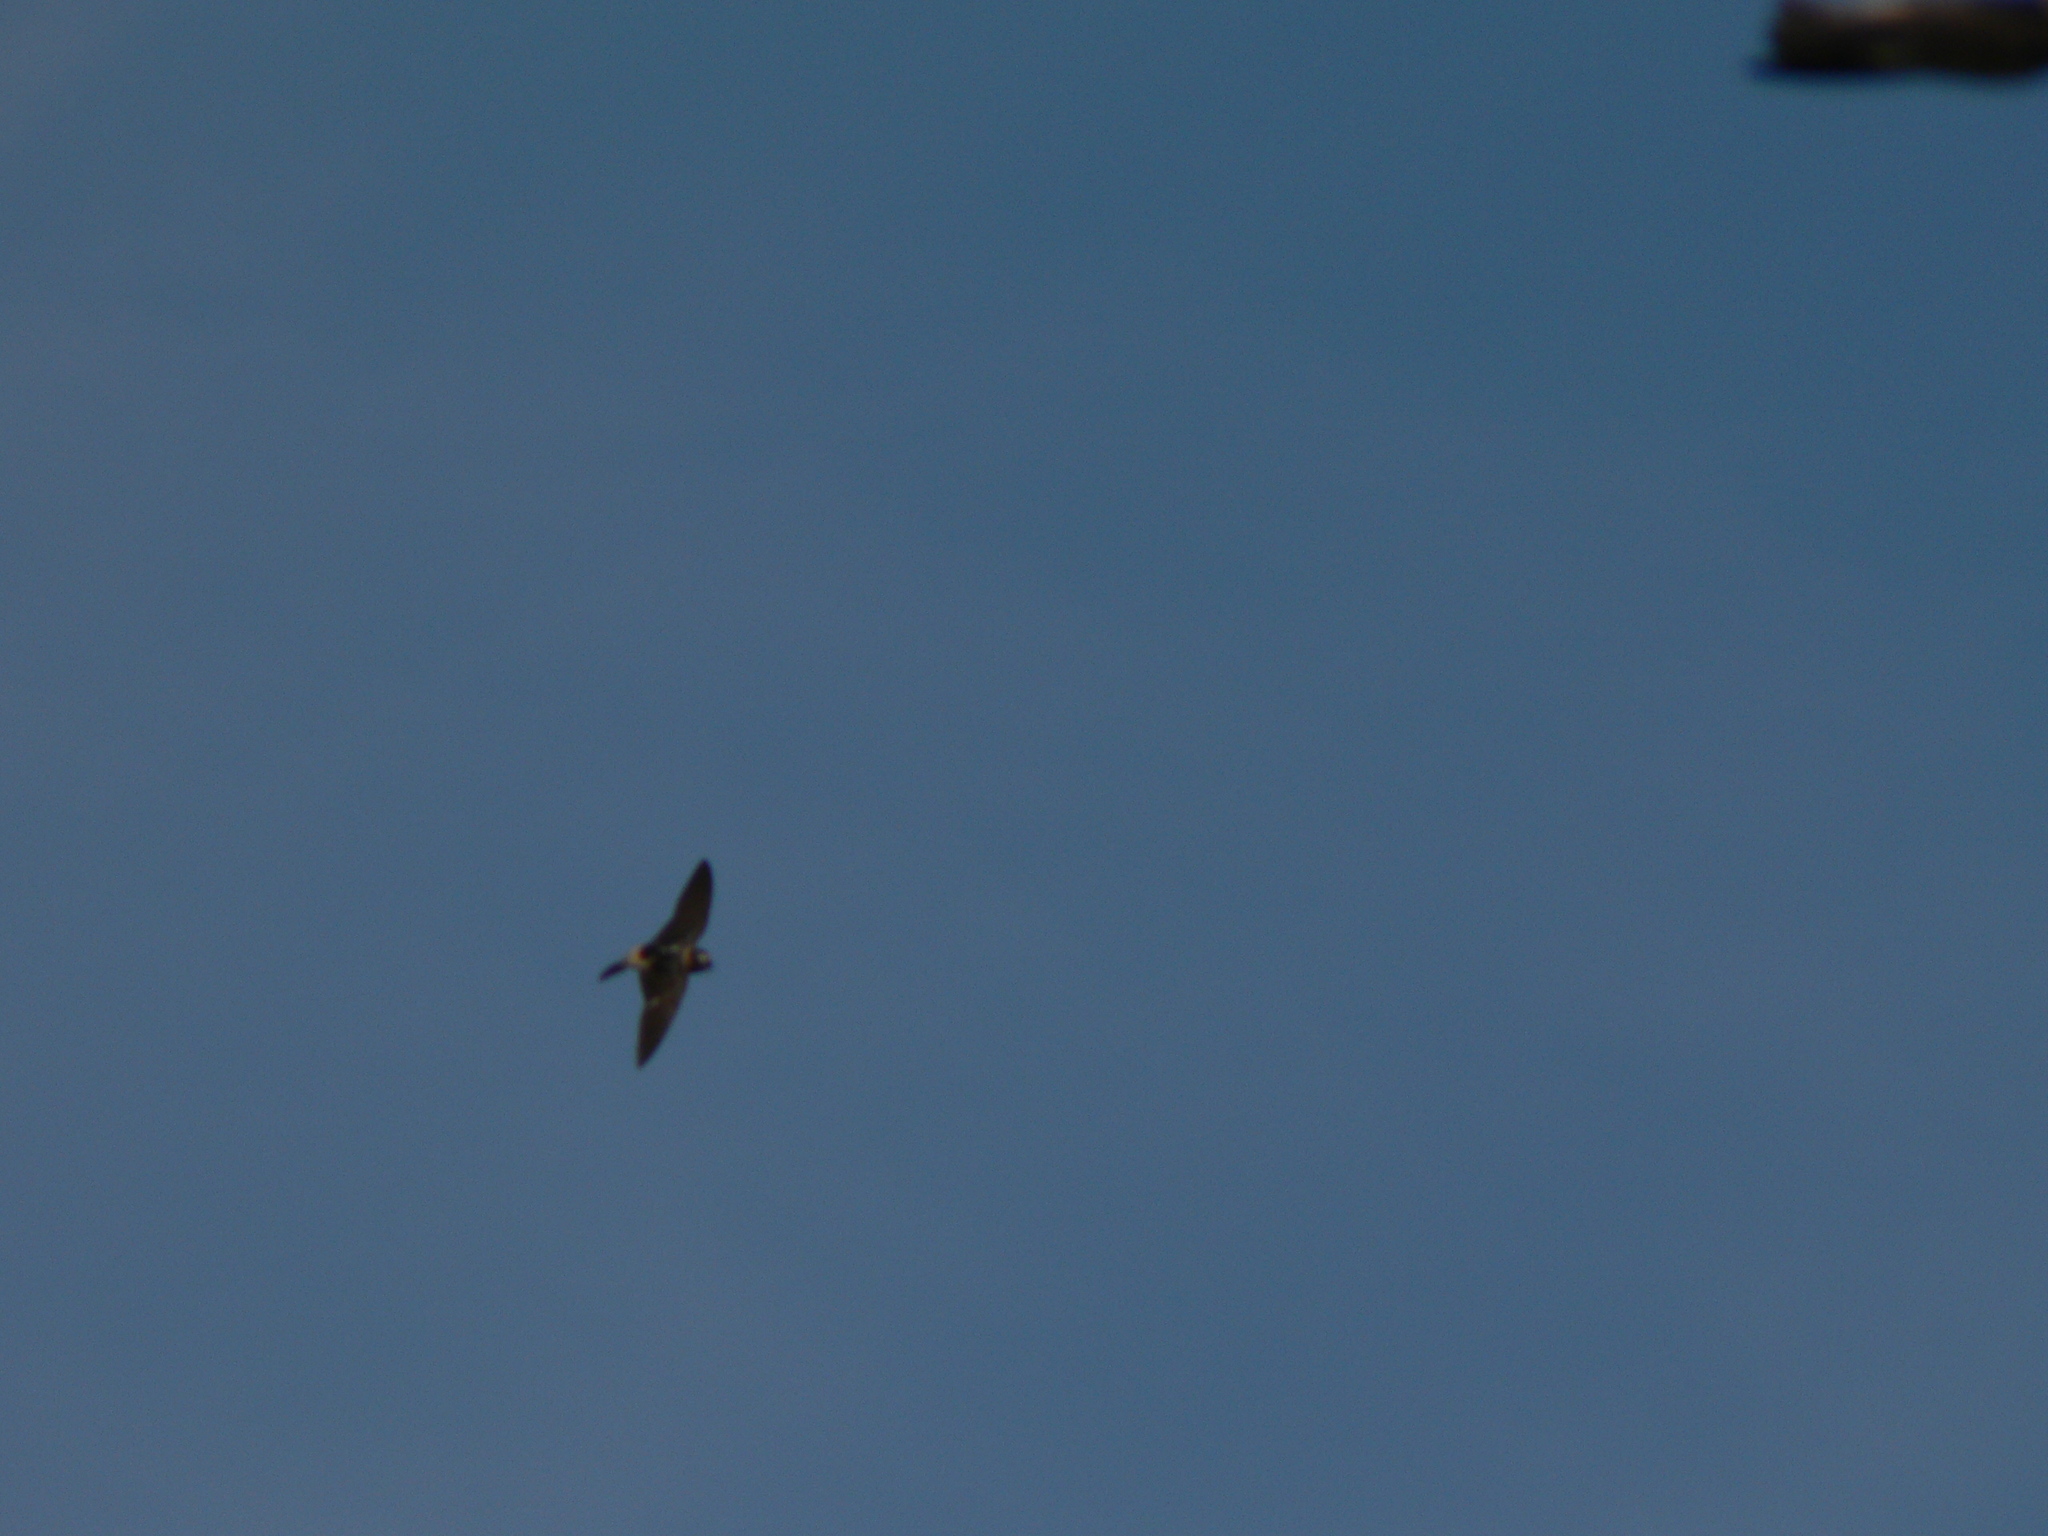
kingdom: Animalia
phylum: Chordata
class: Aves
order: Passeriformes
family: Hirundinidae
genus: Petrochelidon
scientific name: Petrochelidon pyrrhonota
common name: American cliff swallow
